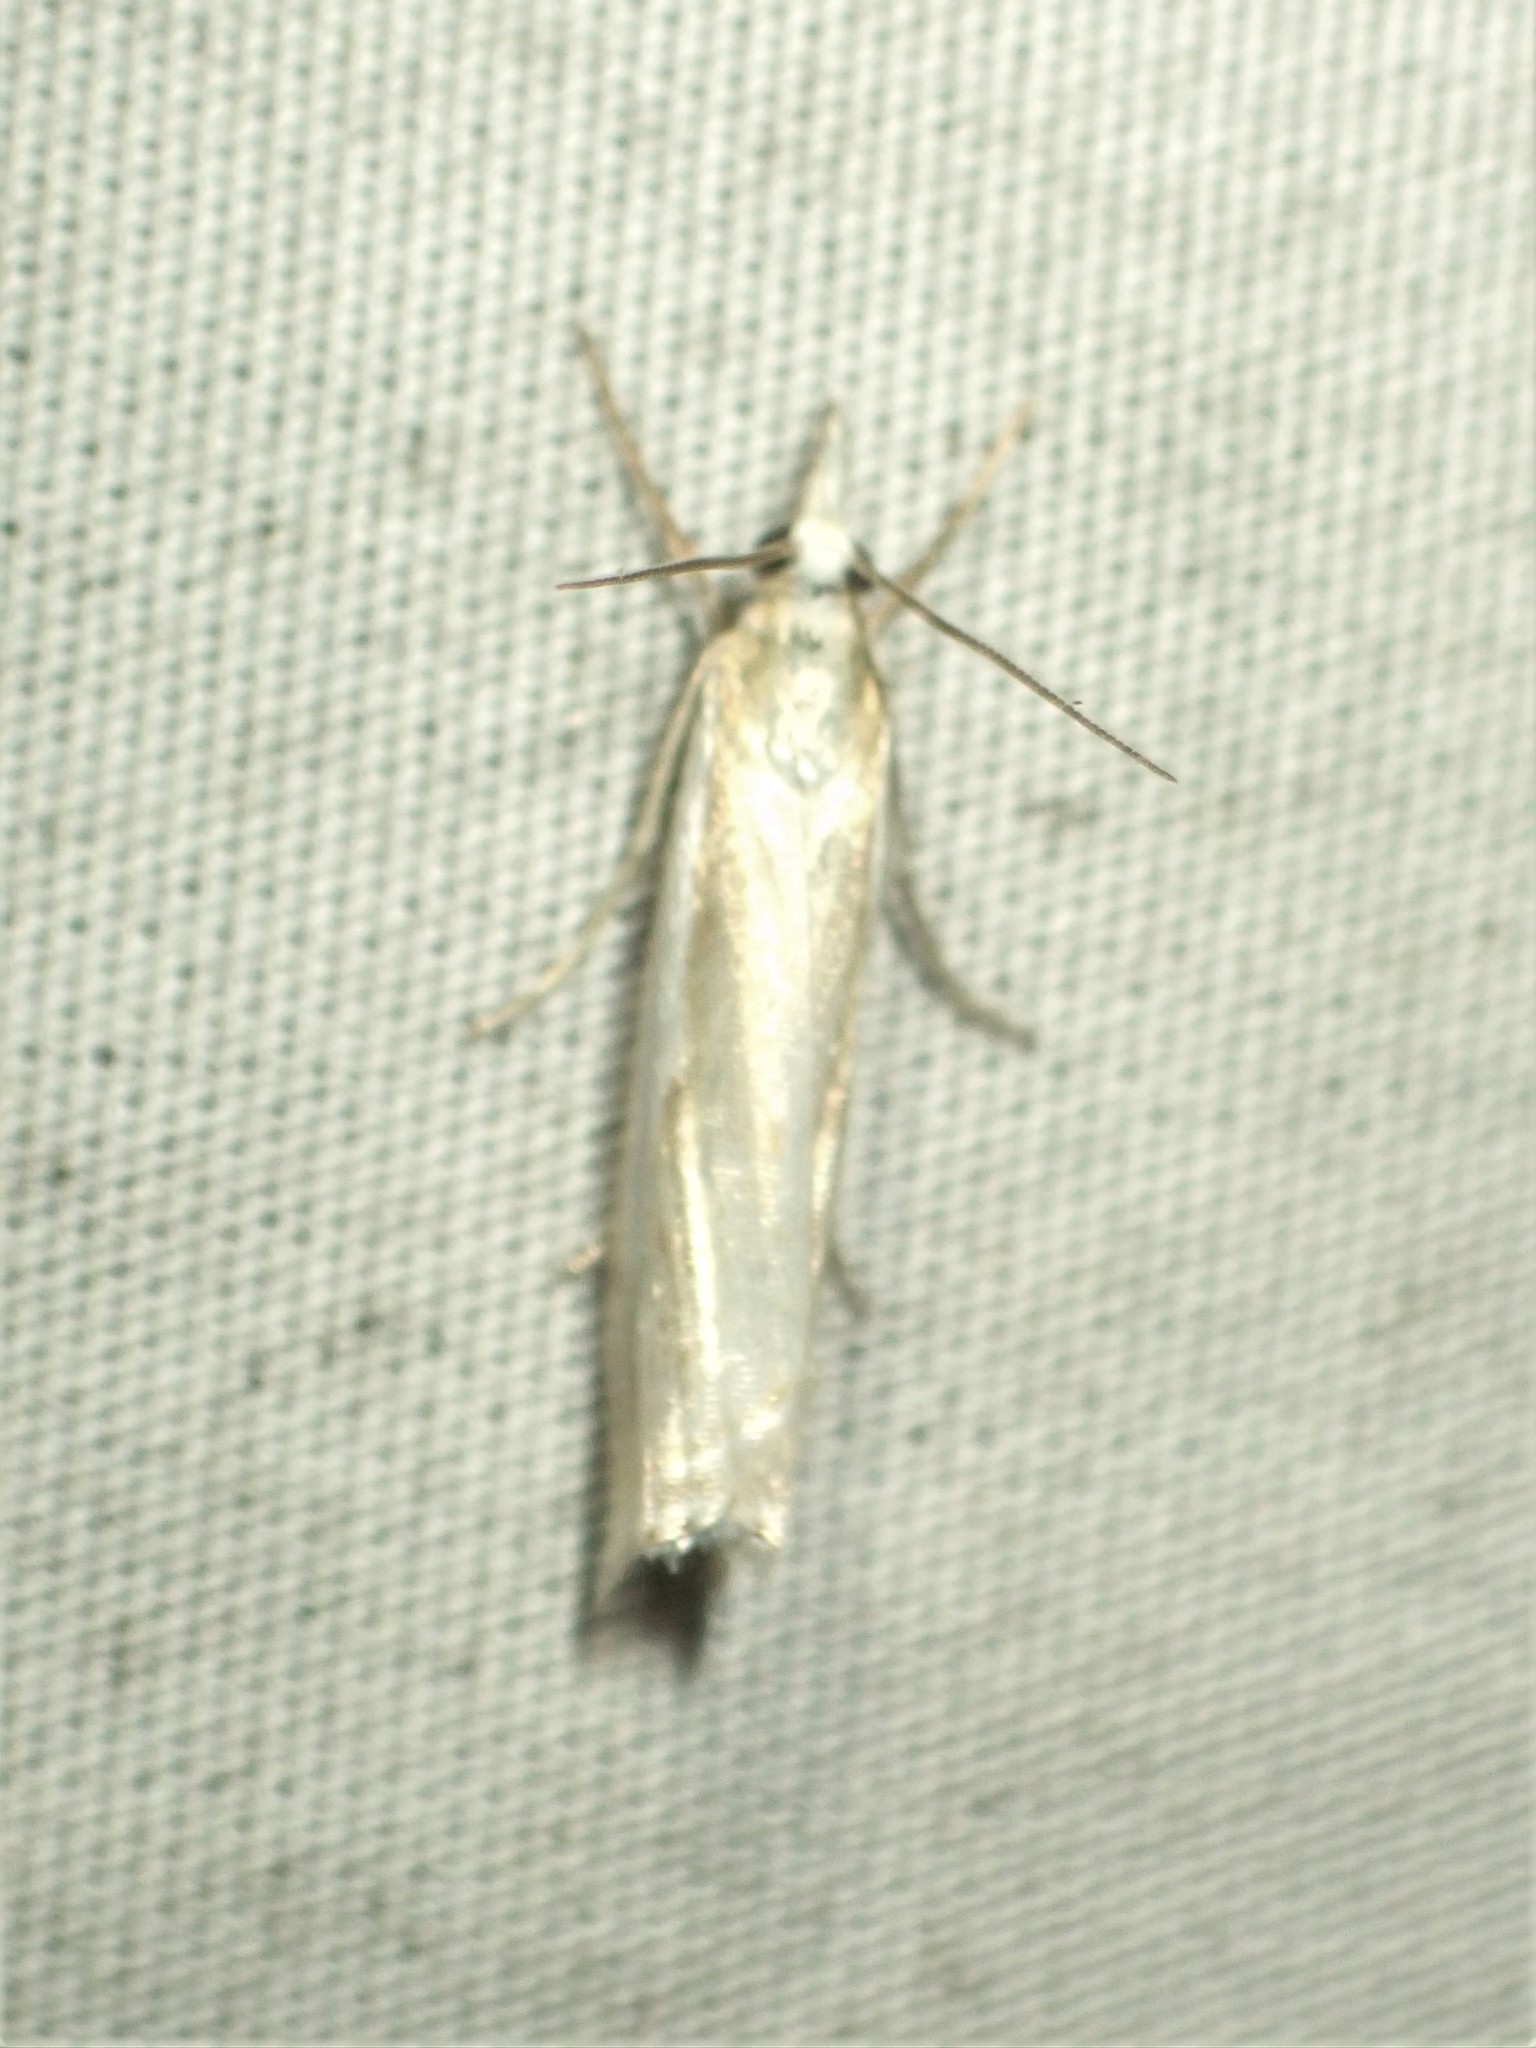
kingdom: Animalia
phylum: Arthropoda
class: Insecta
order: Lepidoptera
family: Crambidae
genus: Crambus
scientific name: Crambus pascuella
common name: Inlaid grass-veneer
